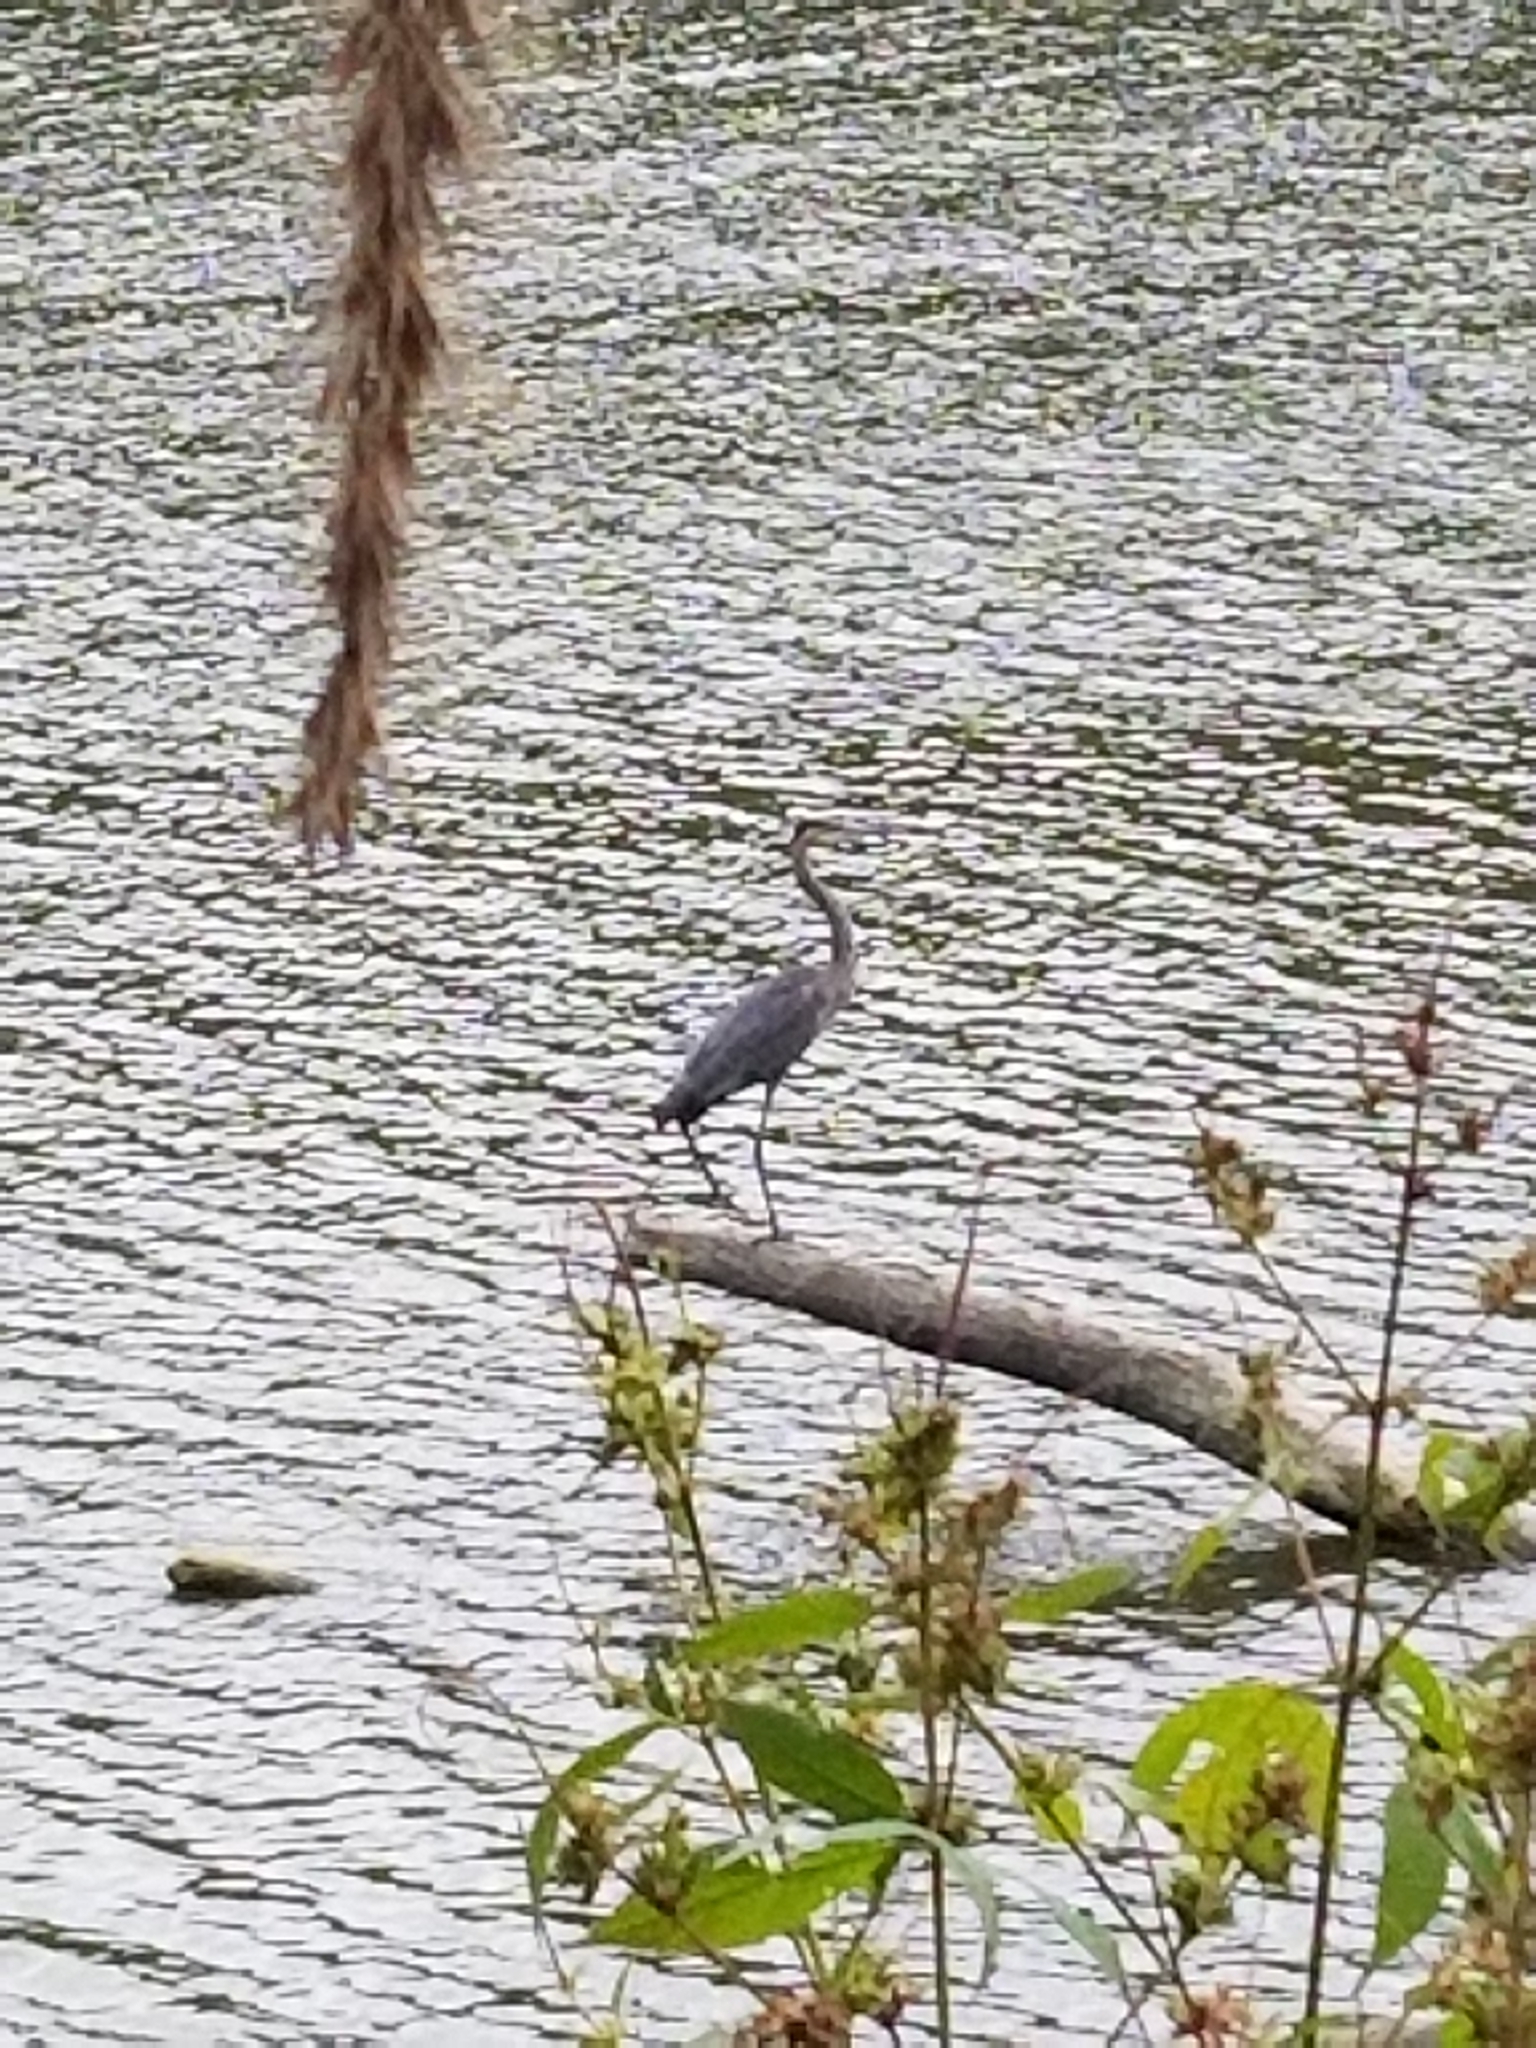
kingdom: Animalia
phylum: Chordata
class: Aves
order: Pelecaniformes
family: Ardeidae
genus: Ardea
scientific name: Ardea herodias
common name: Great blue heron
